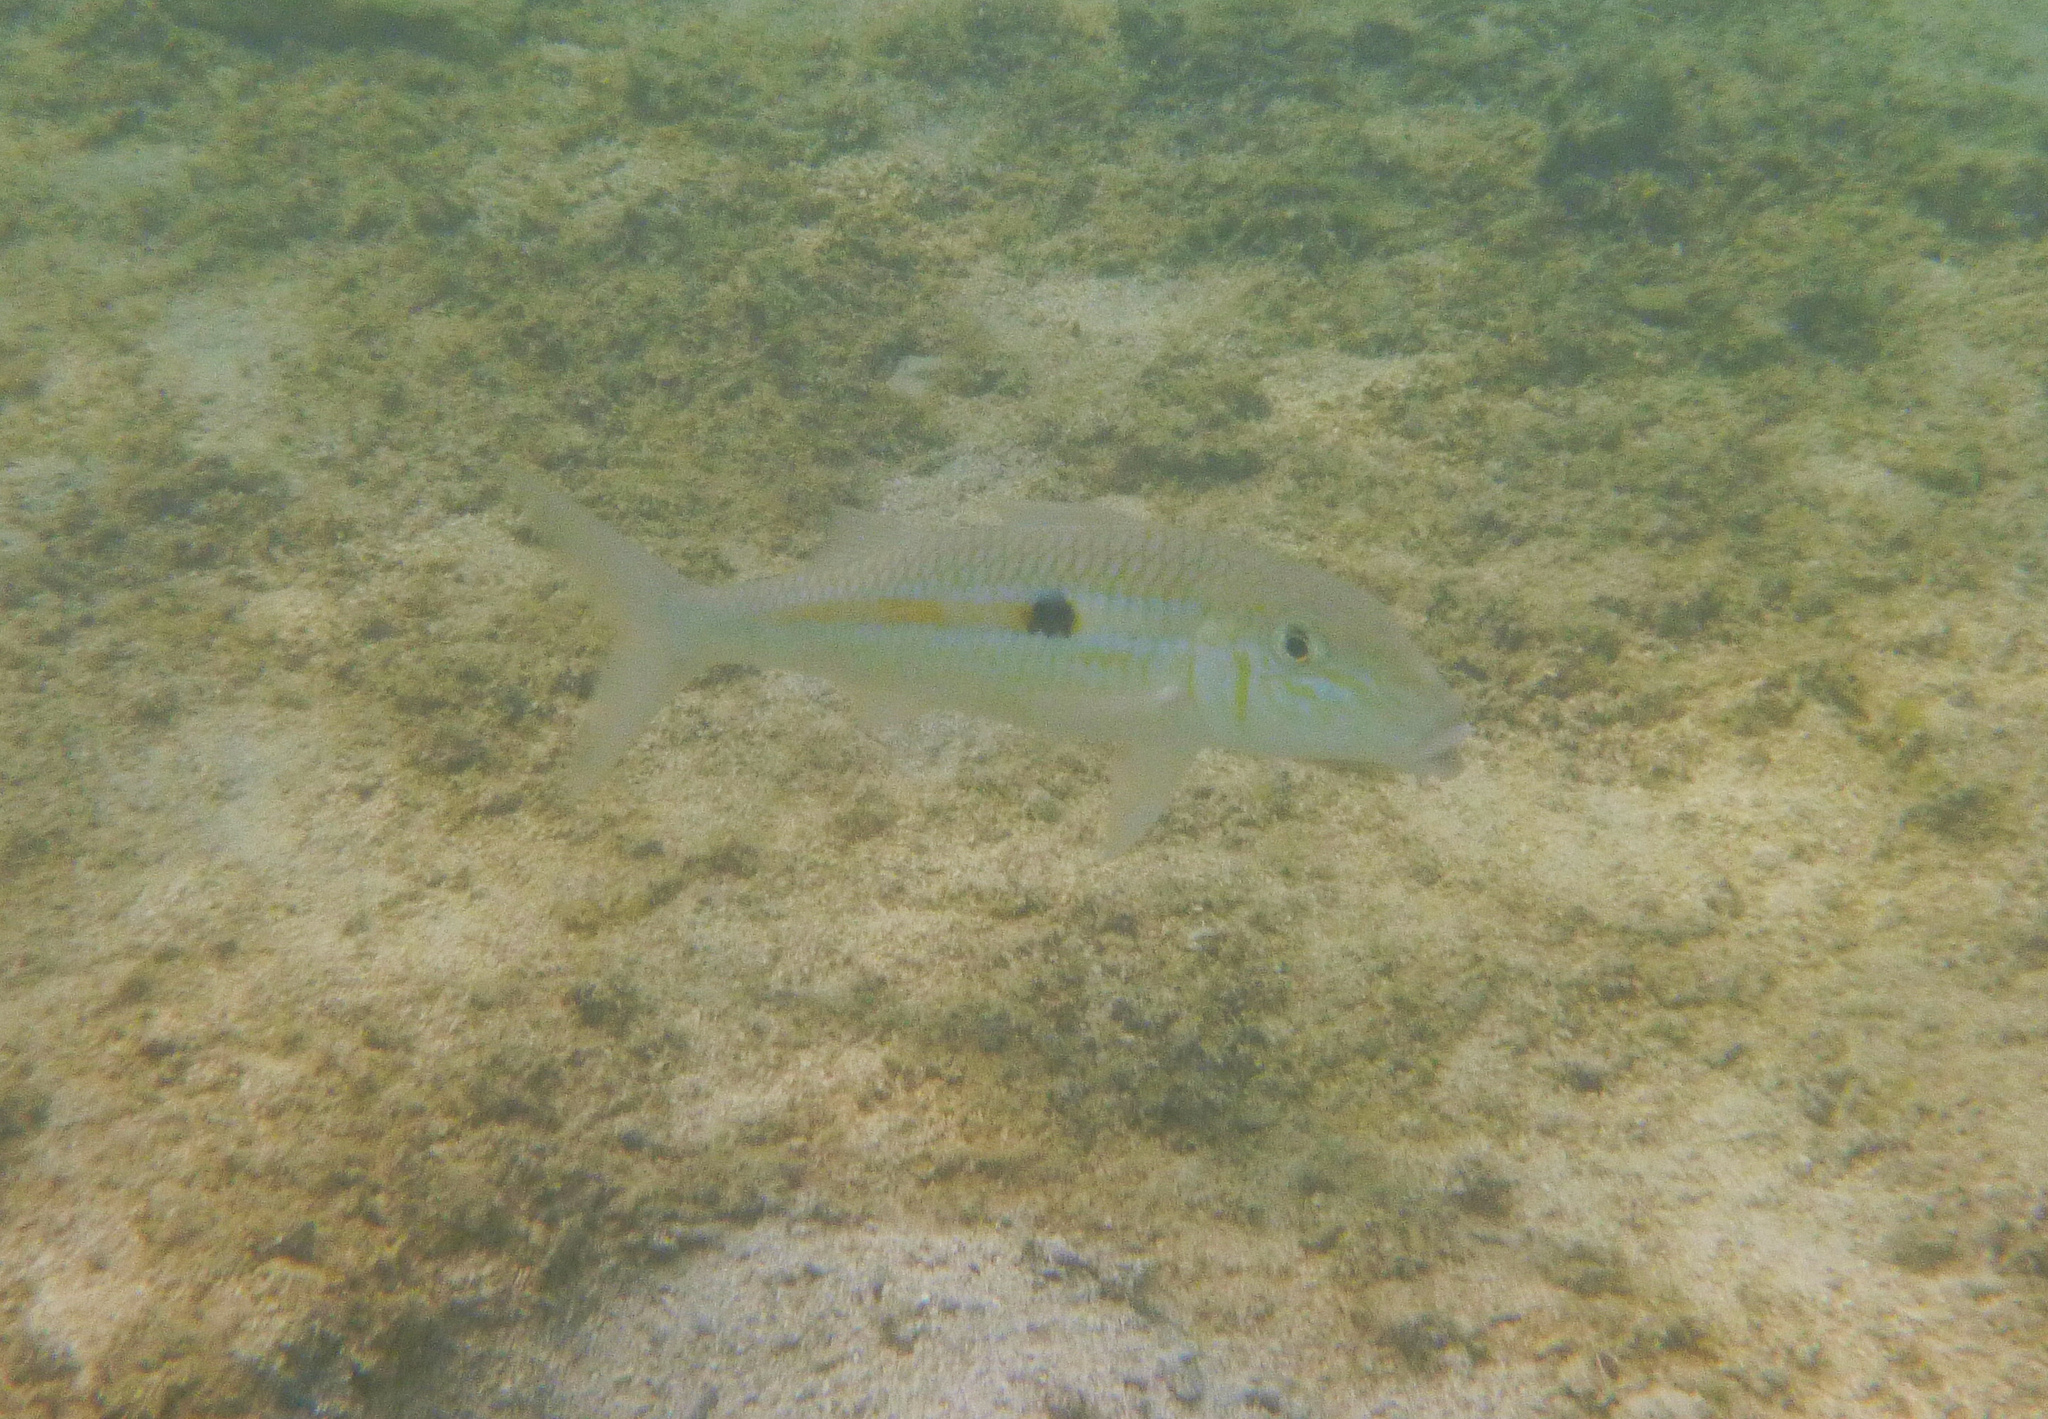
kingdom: Animalia
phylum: Chordata
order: Perciformes
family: Mullidae
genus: Mulloidichthys
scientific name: Mulloidichthys flavolineatus
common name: Yellowstripe goatfish
